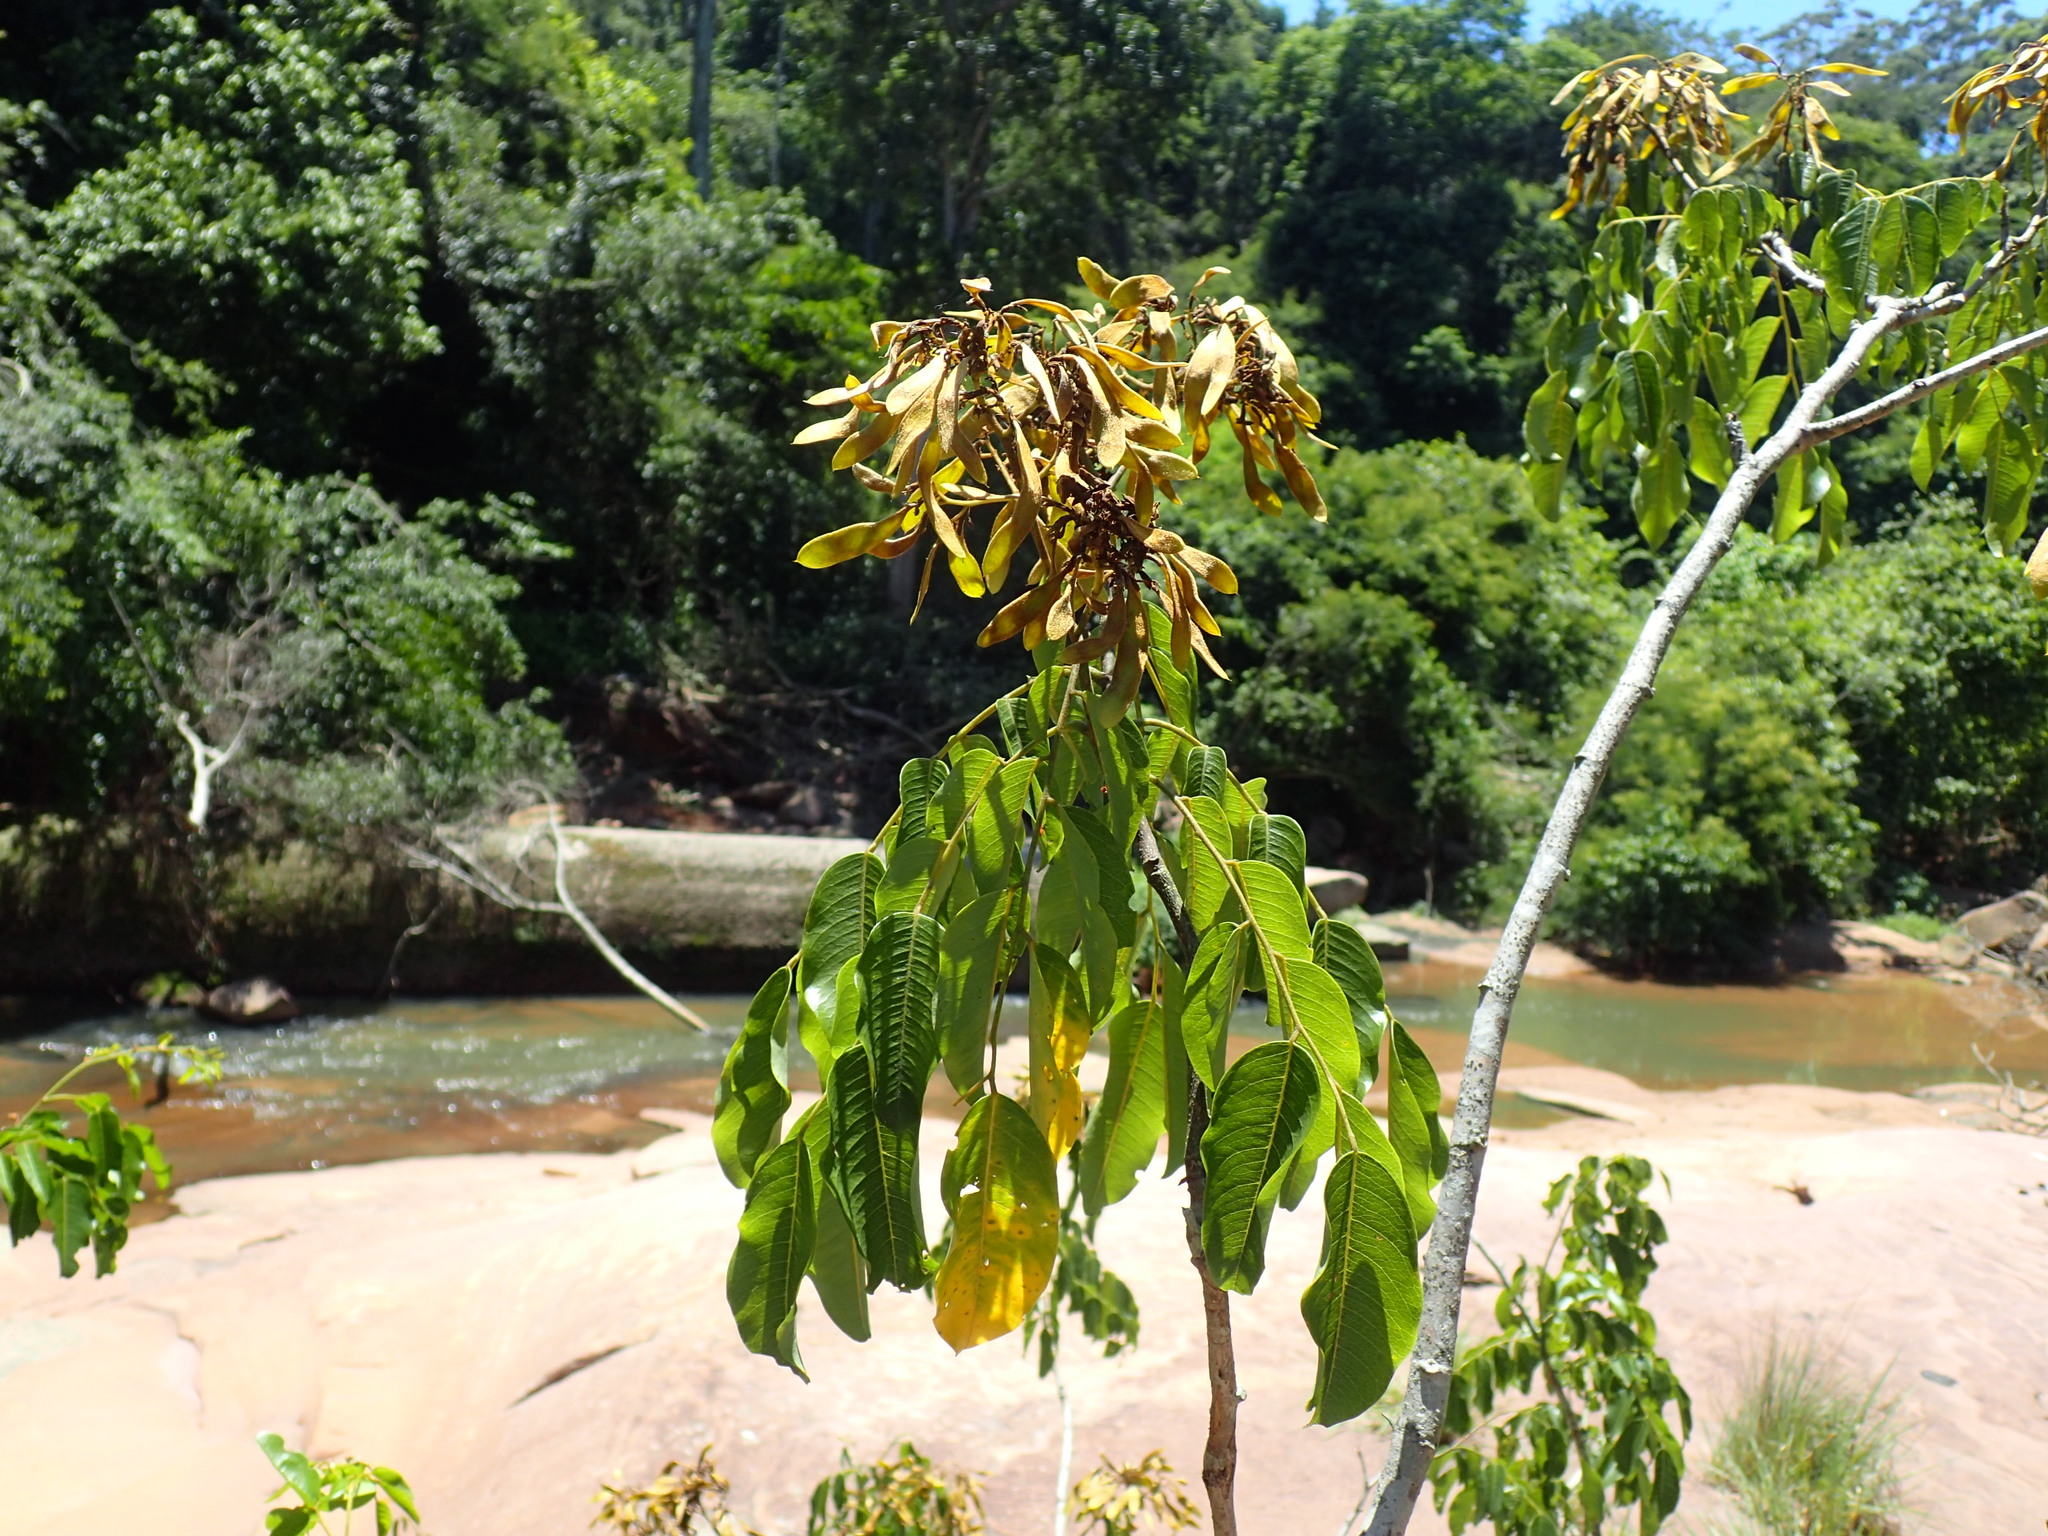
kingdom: Plantae
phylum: Tracheophyta
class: Magnoliopsida
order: Fabales
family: Fabaceae
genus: Dalbergia
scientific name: Dalbergia obovata
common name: Climbing flat-bean
